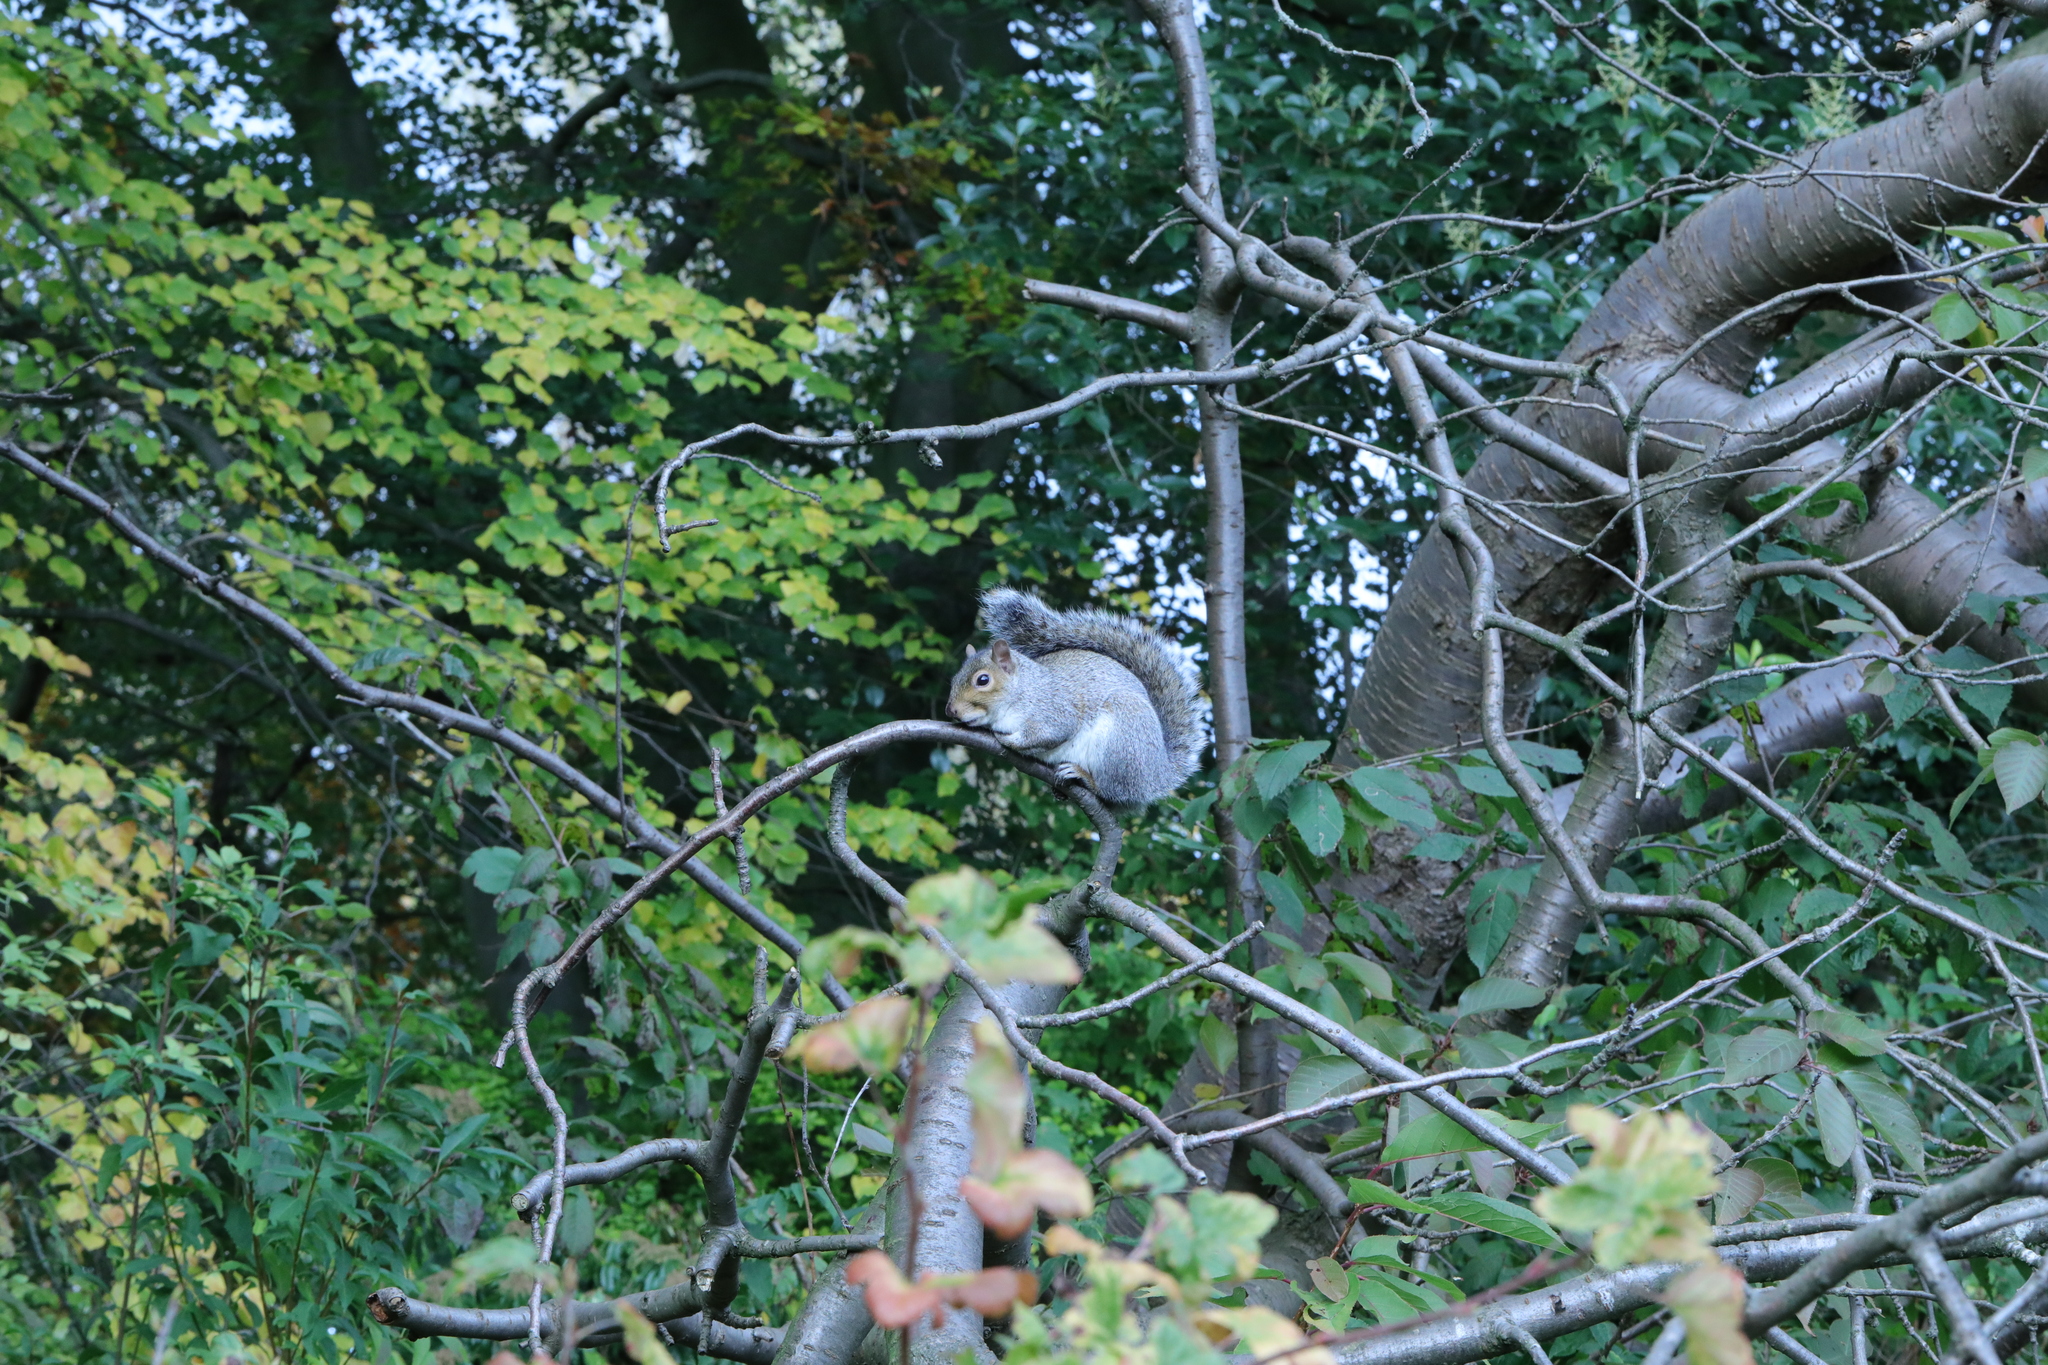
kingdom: Animalia
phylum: Chordata
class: Mammalia
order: Rodentia
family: Sciuridae
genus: Sciurus
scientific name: Sciurus carolinensis
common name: Eastern gray squirrel
